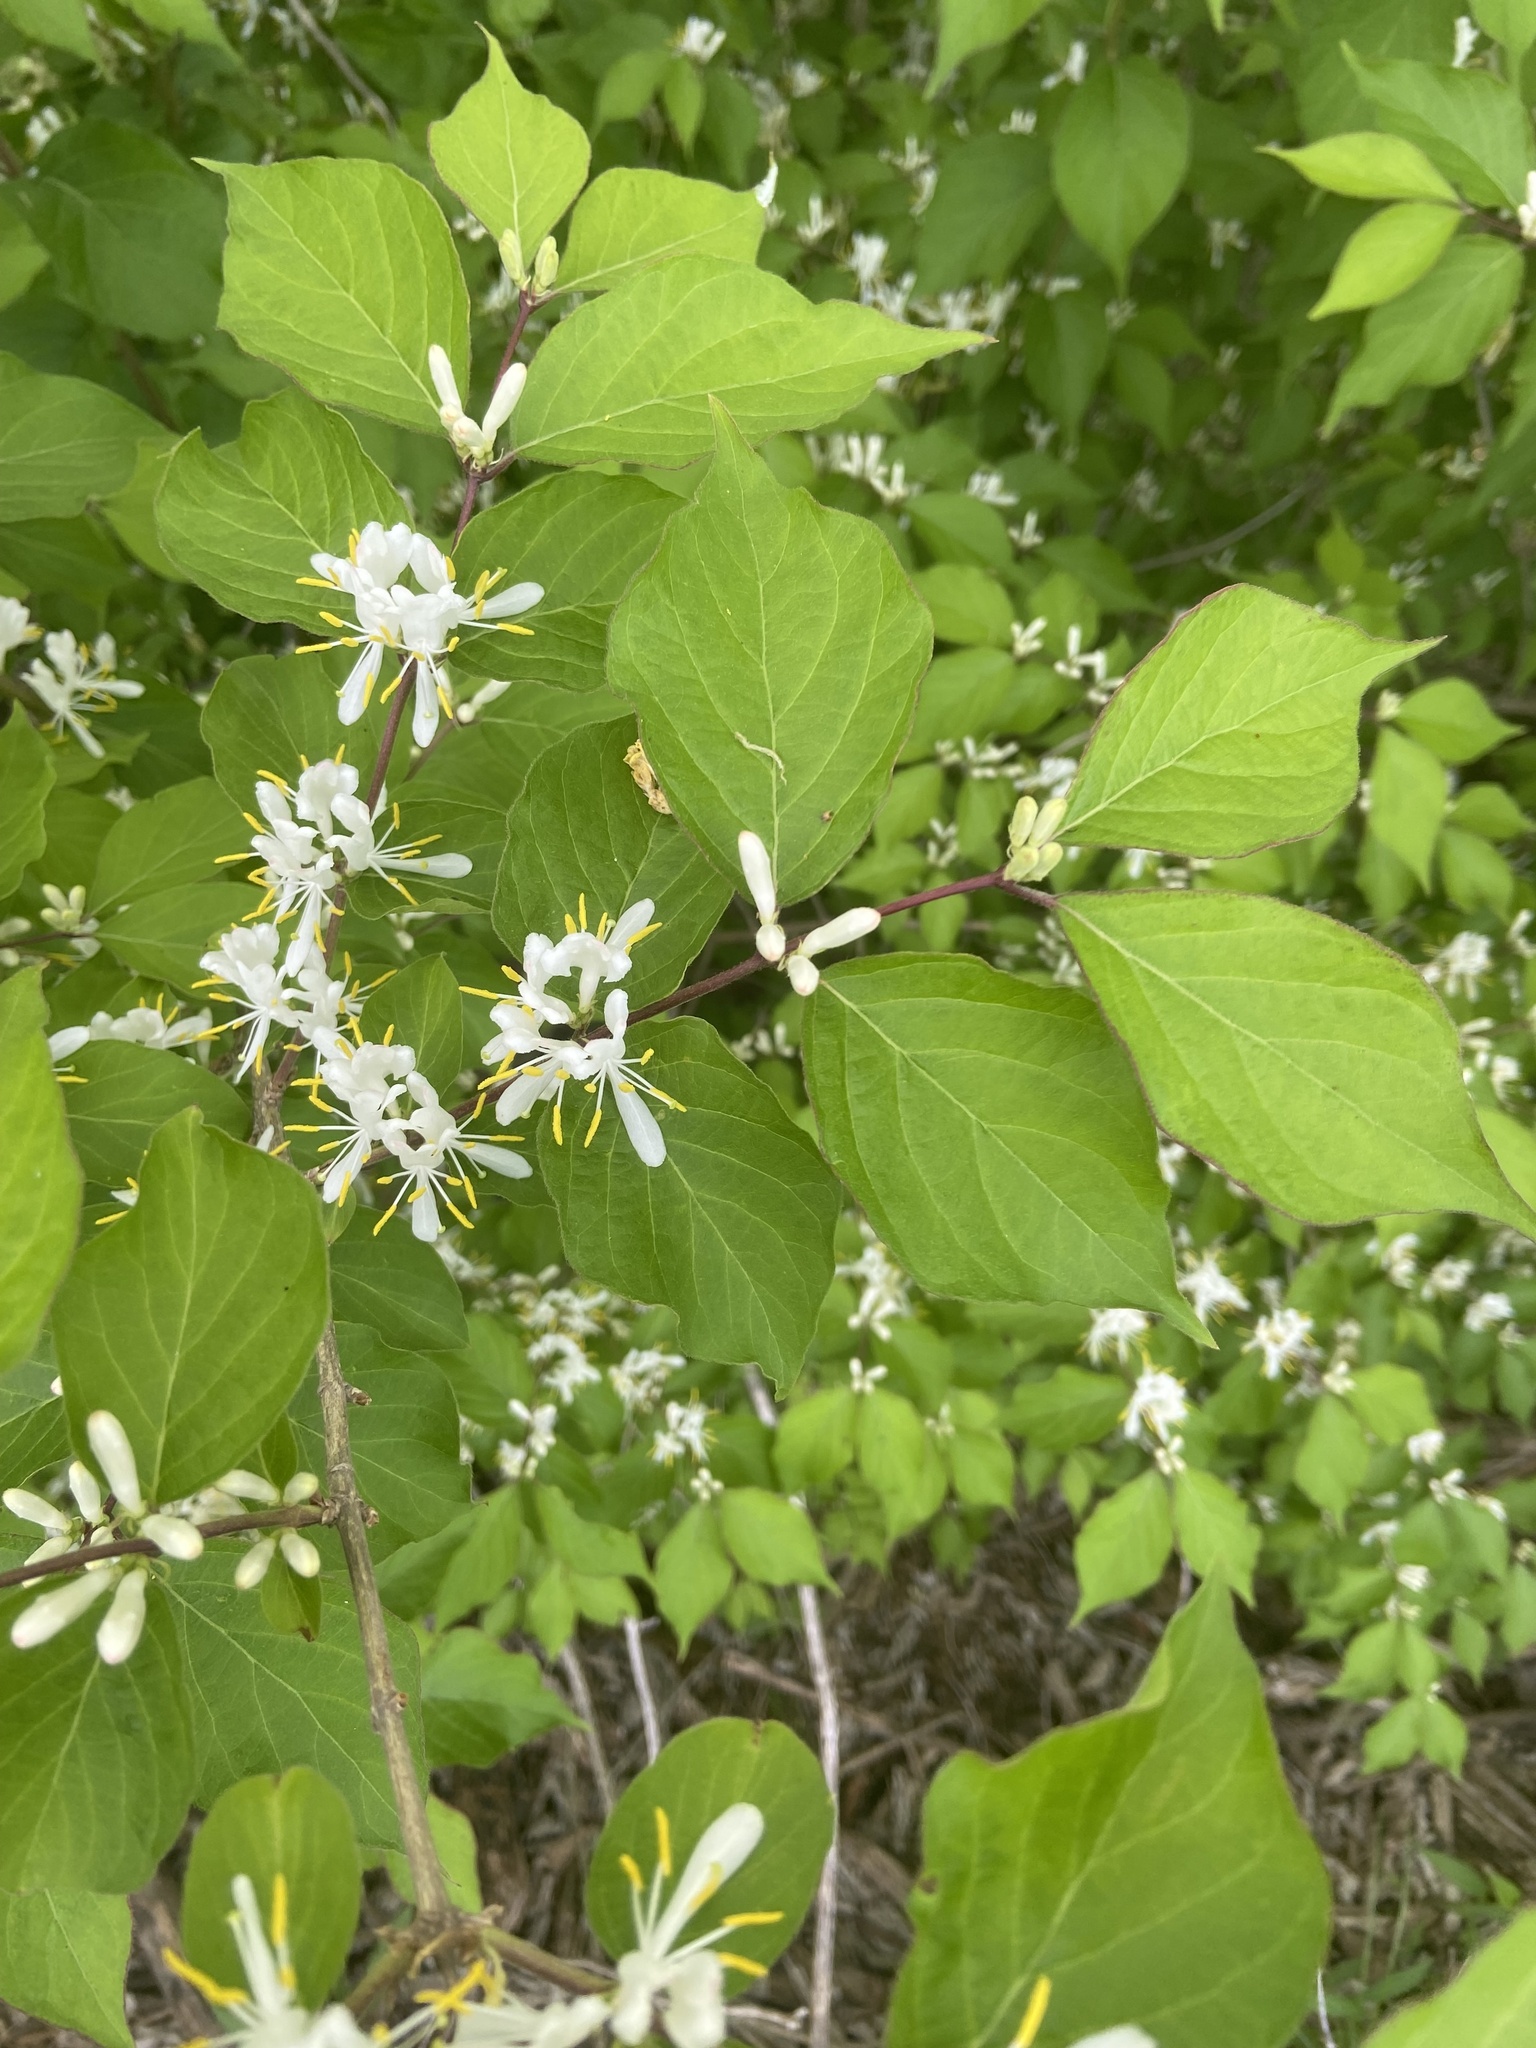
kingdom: Plantae
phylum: Tracheophyta
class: Magnoliopsida
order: Dipsacales
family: Caprifoliaceae
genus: Lonicera
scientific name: Lonicera maackii
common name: Amur honeysuckle
